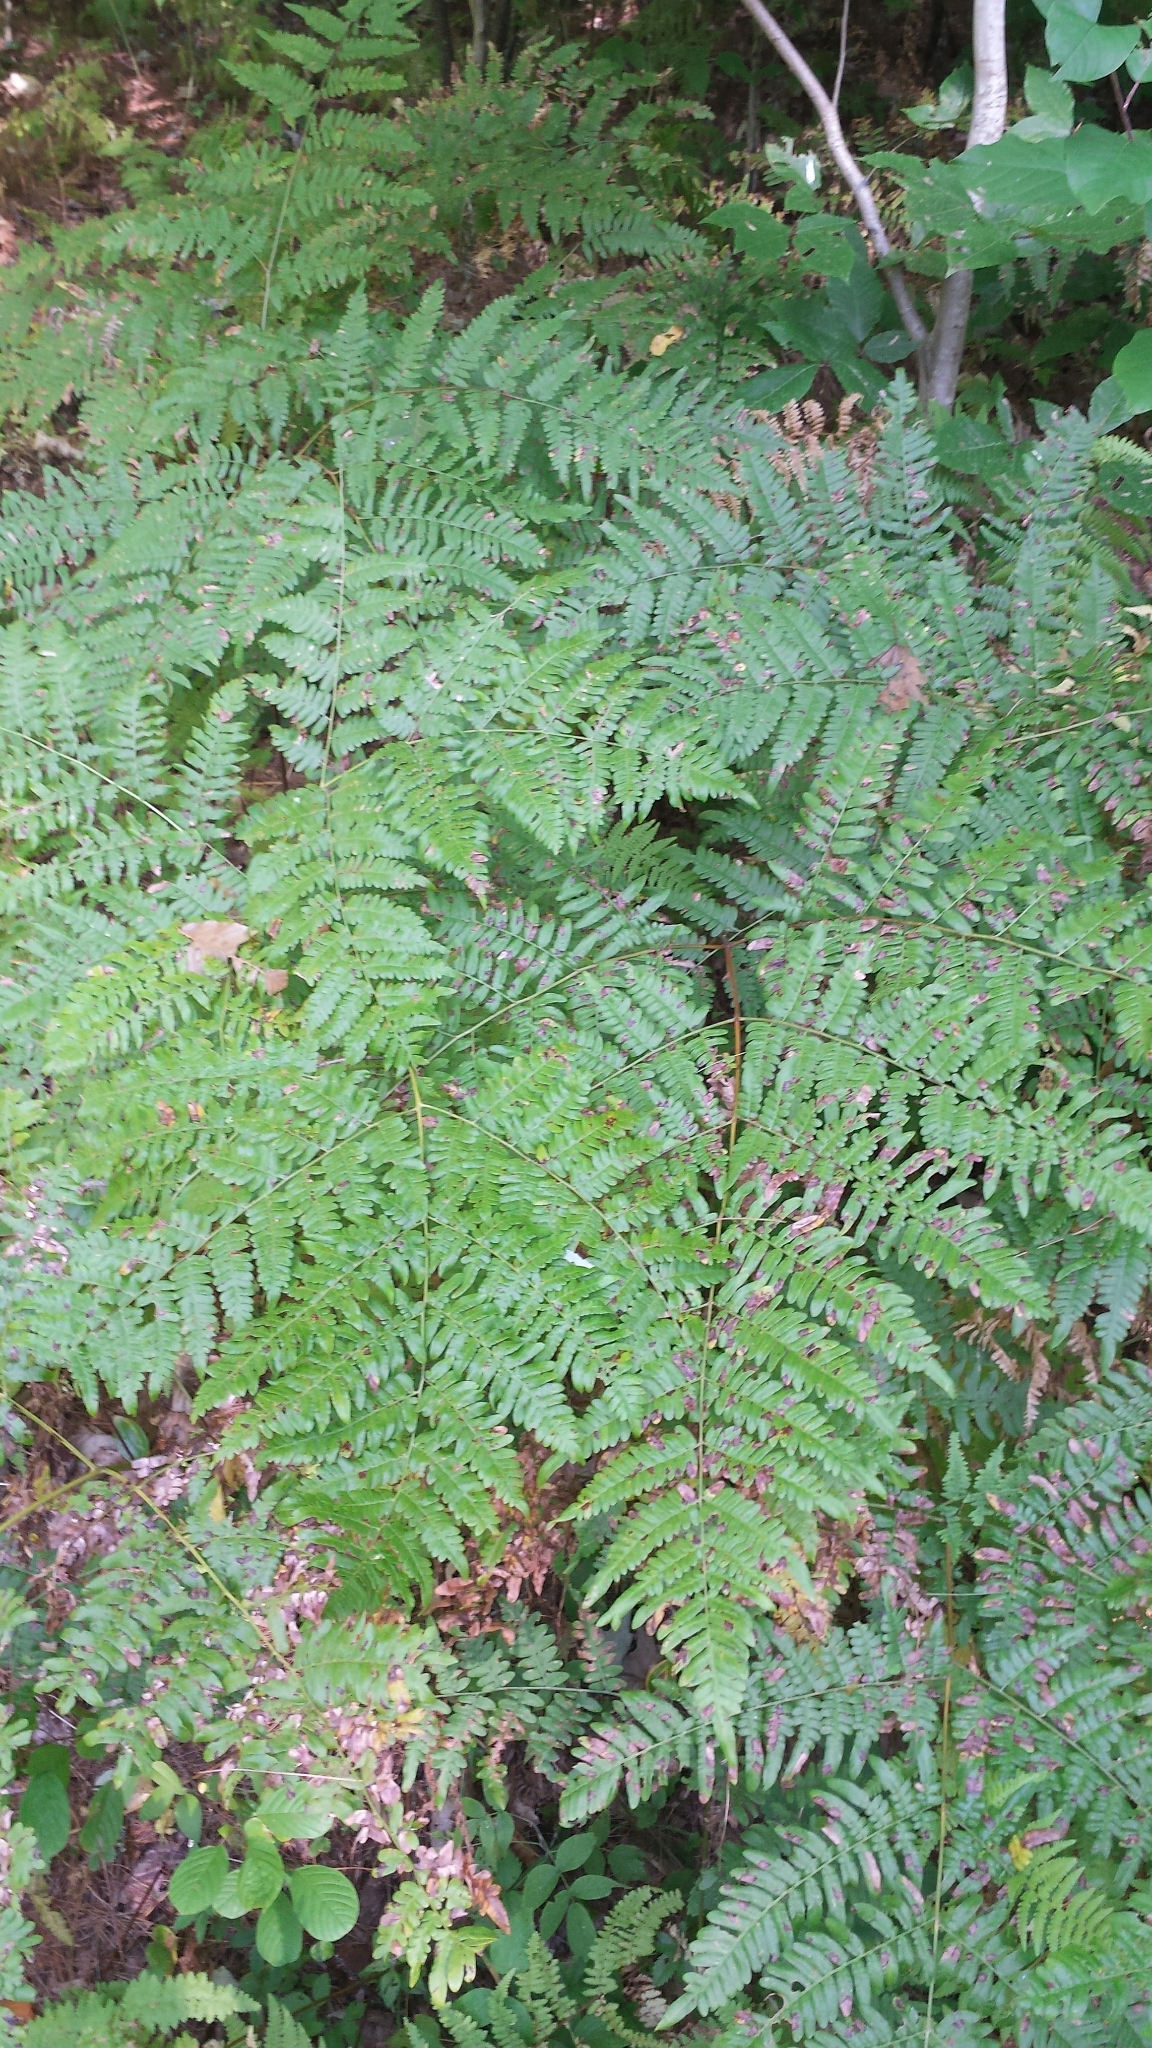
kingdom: Plantae
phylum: Tracheophyta
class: Polypodiopsida
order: Polypodiales
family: Dennstaedtiaceae
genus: Pteridium
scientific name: Pteridium aquilinum
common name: Bracken
